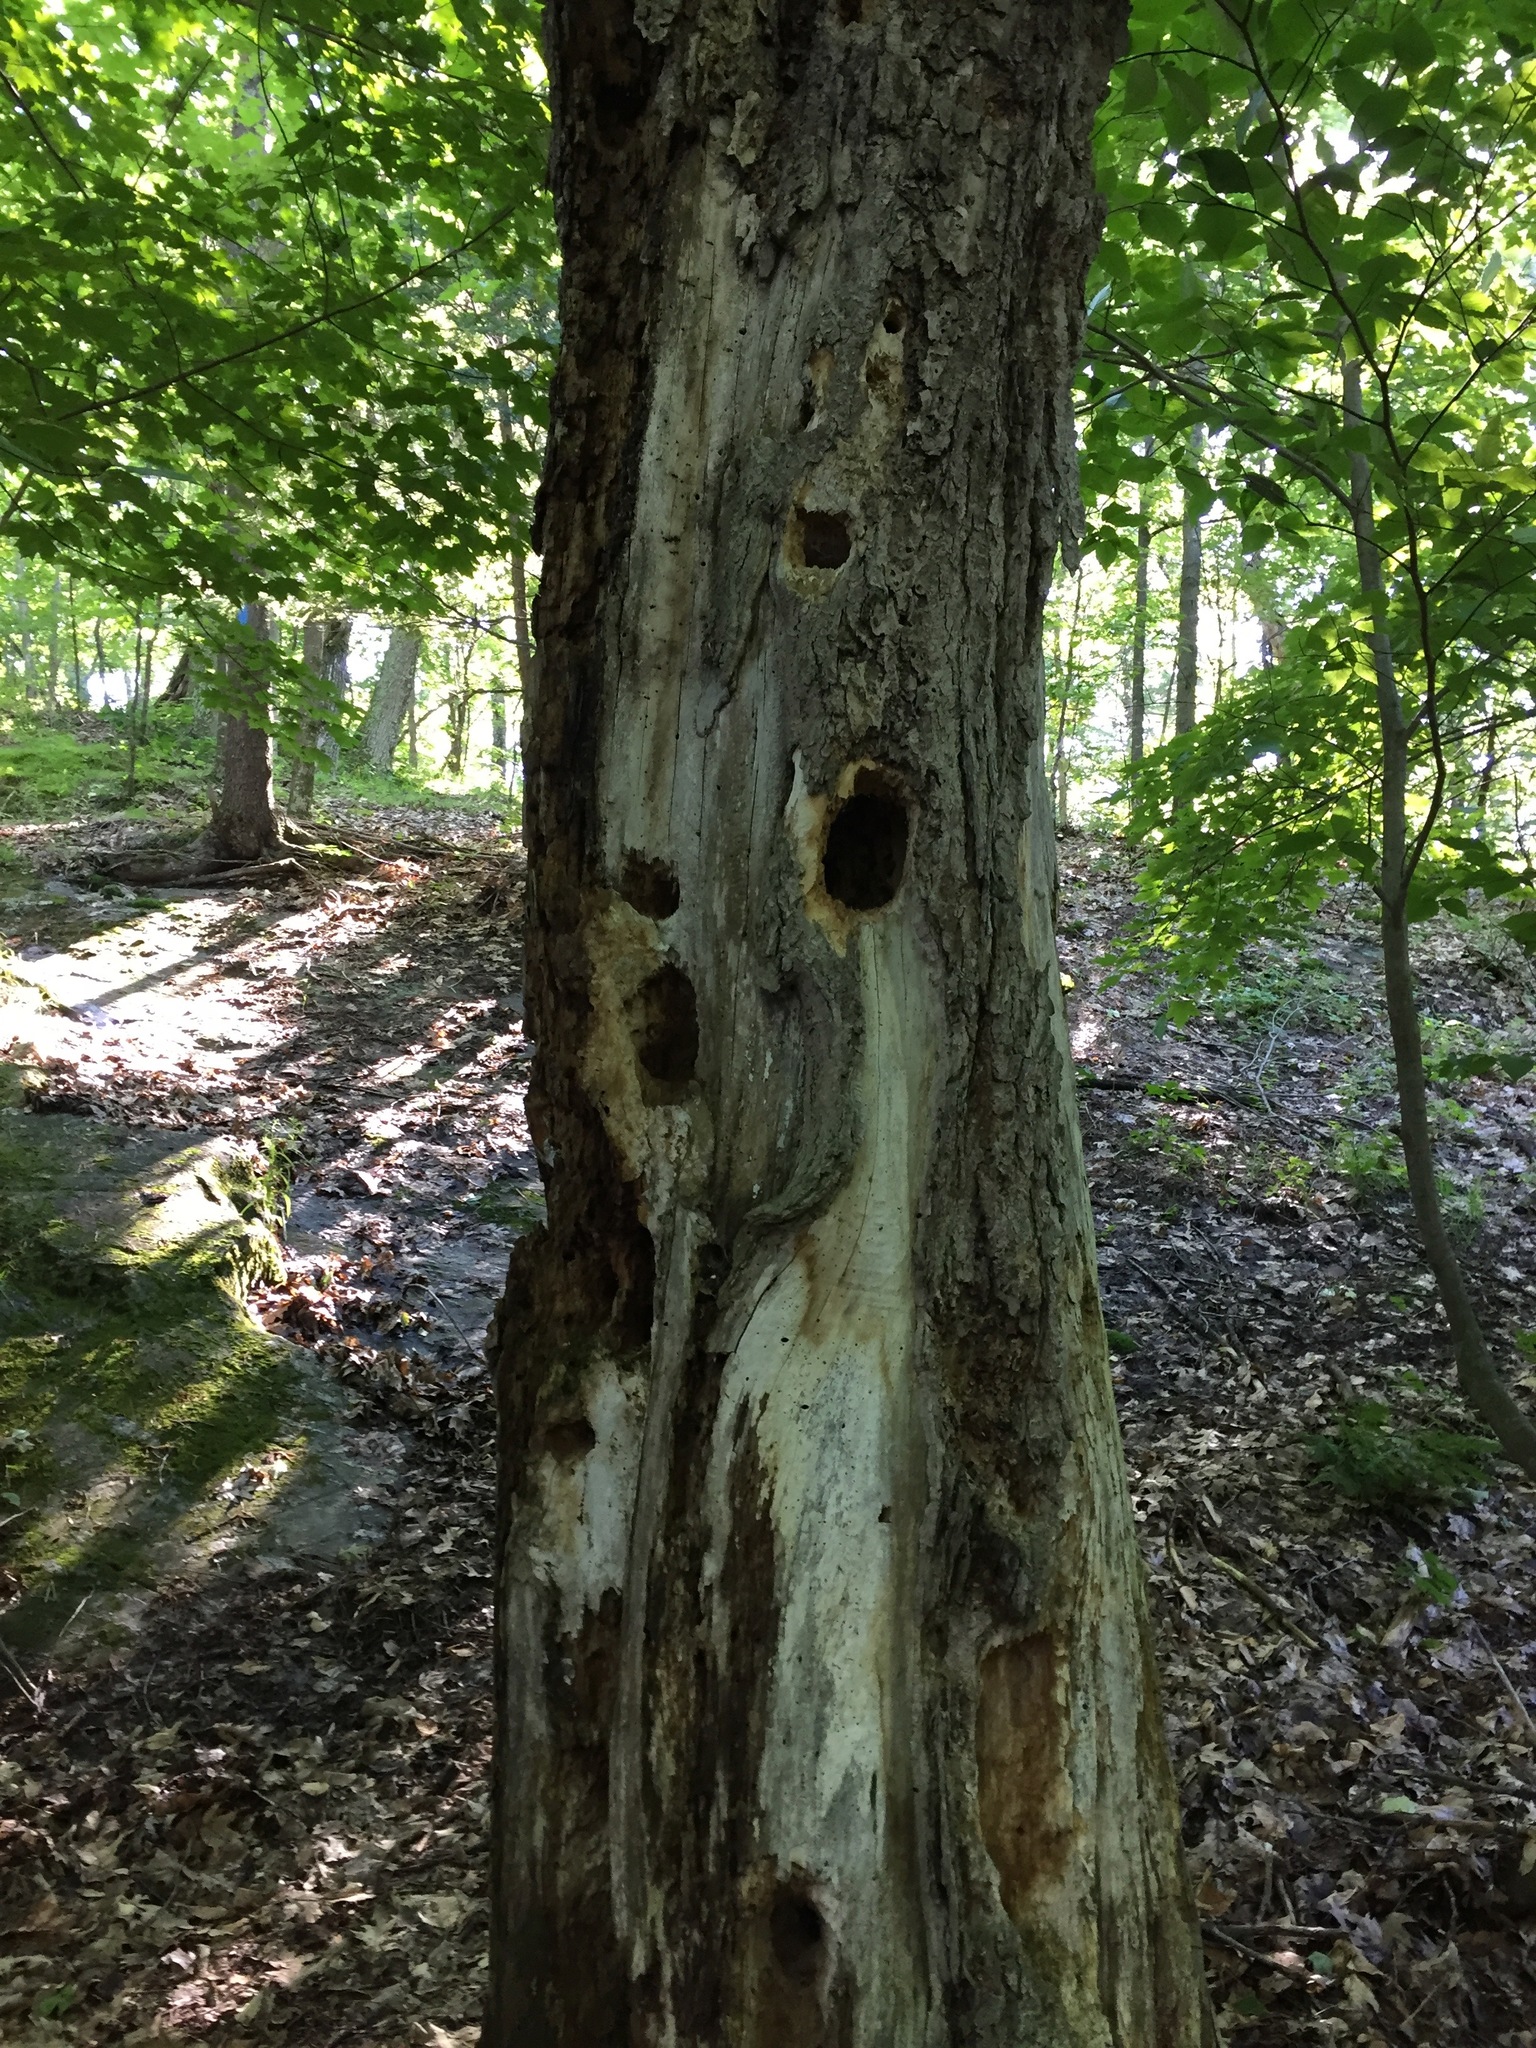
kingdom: Animalia
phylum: Chordata
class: Aves
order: Piciformes
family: Picidae
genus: Dryocopus
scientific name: Dryocopus pileatus
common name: Pileated woodpecker
